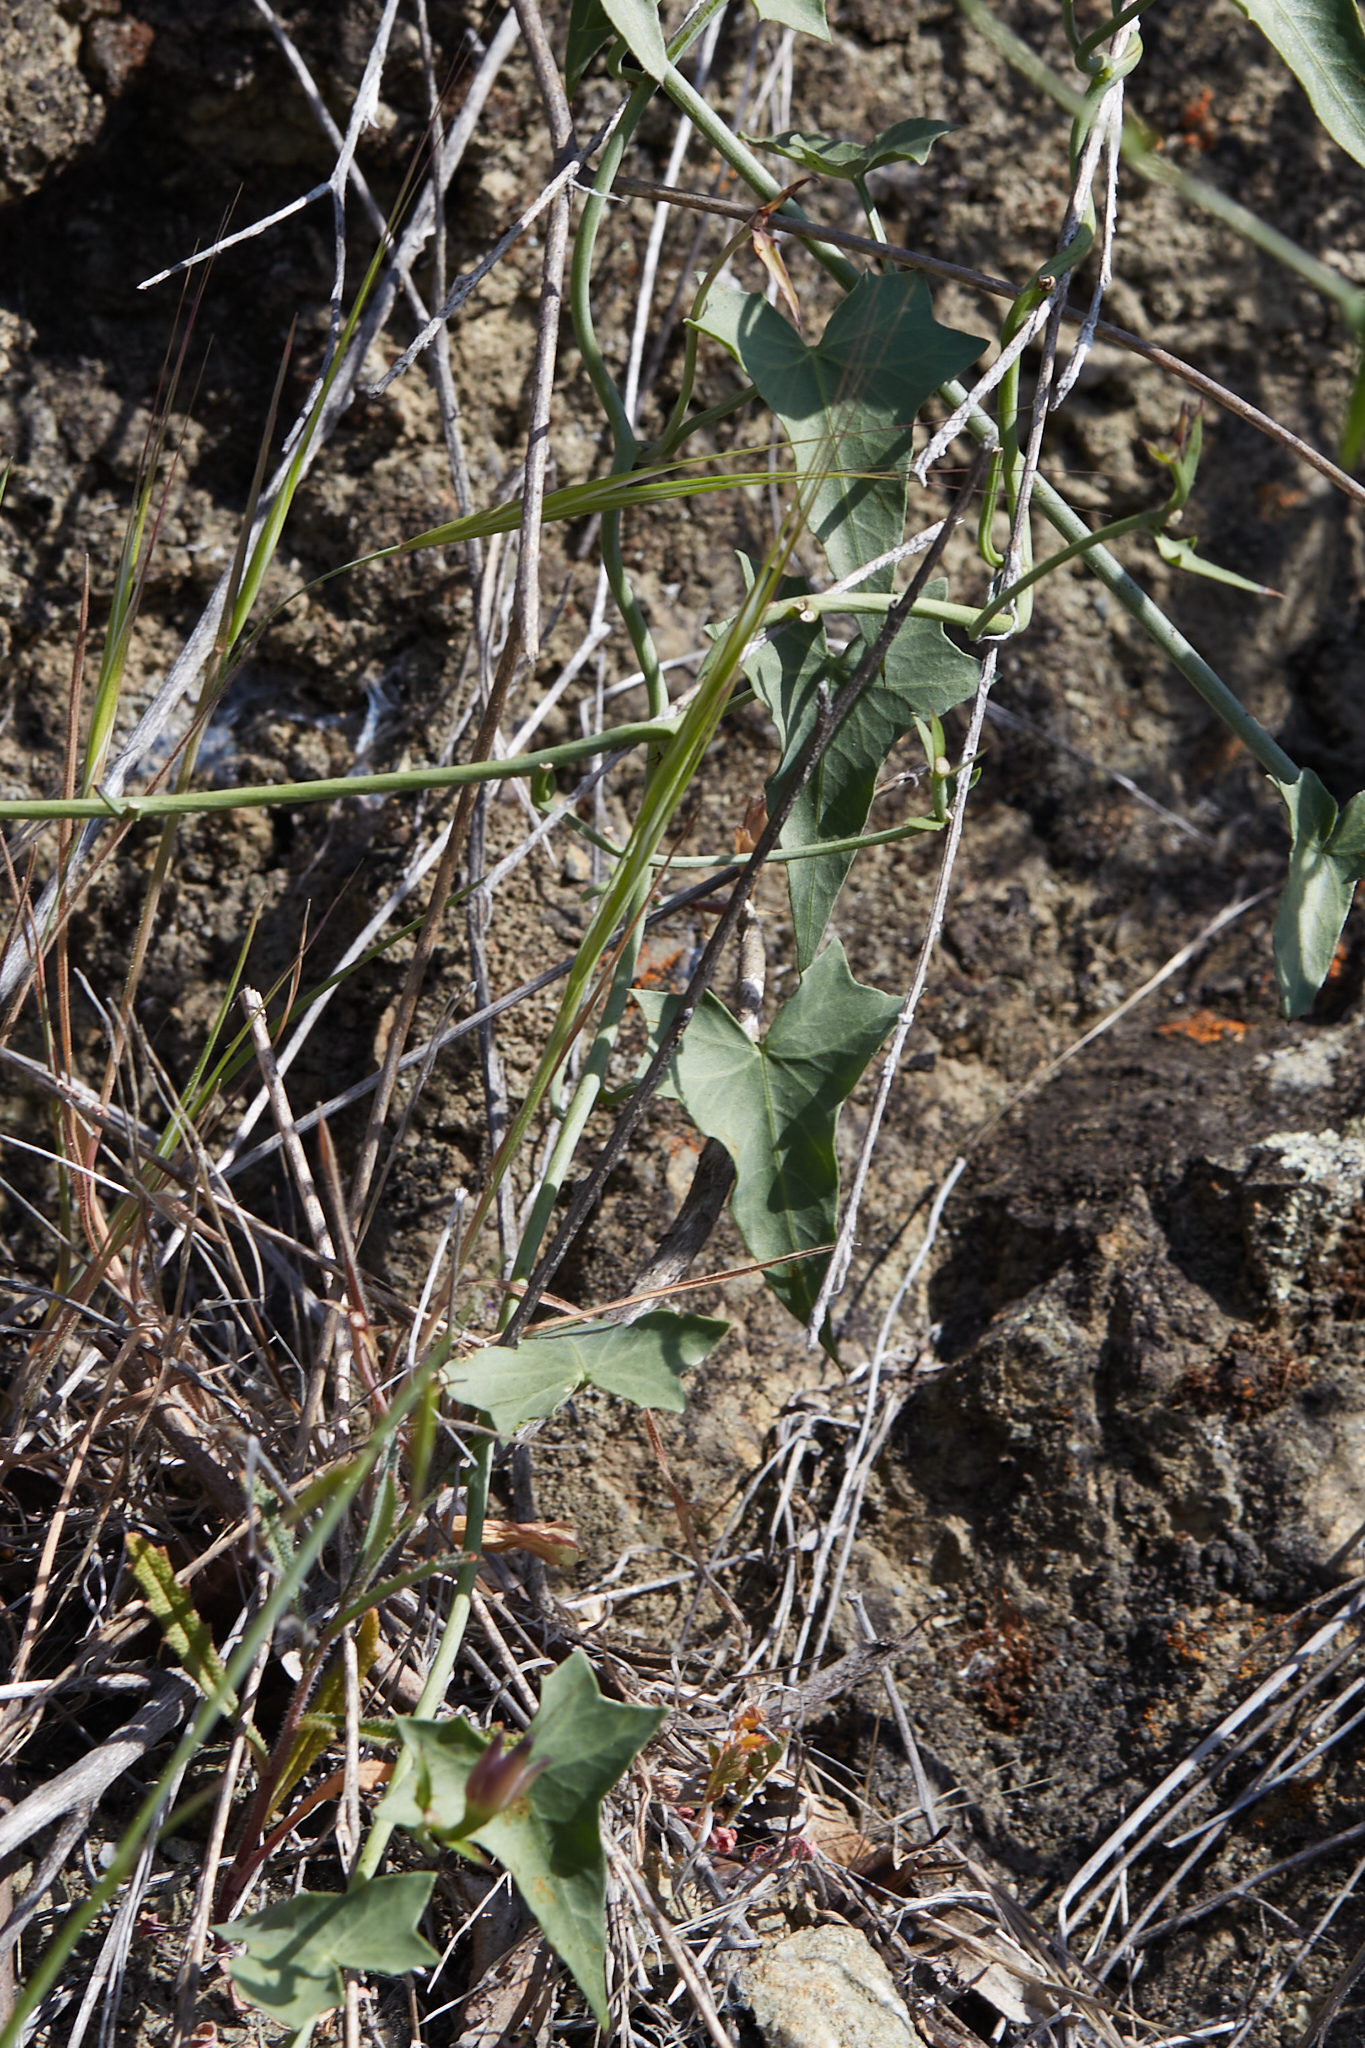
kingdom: Plantae
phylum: Tracheophyta
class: Magnoliopsida
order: Solanales
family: Convolvulaceae
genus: Calystegia
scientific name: Calystegia purpurata
